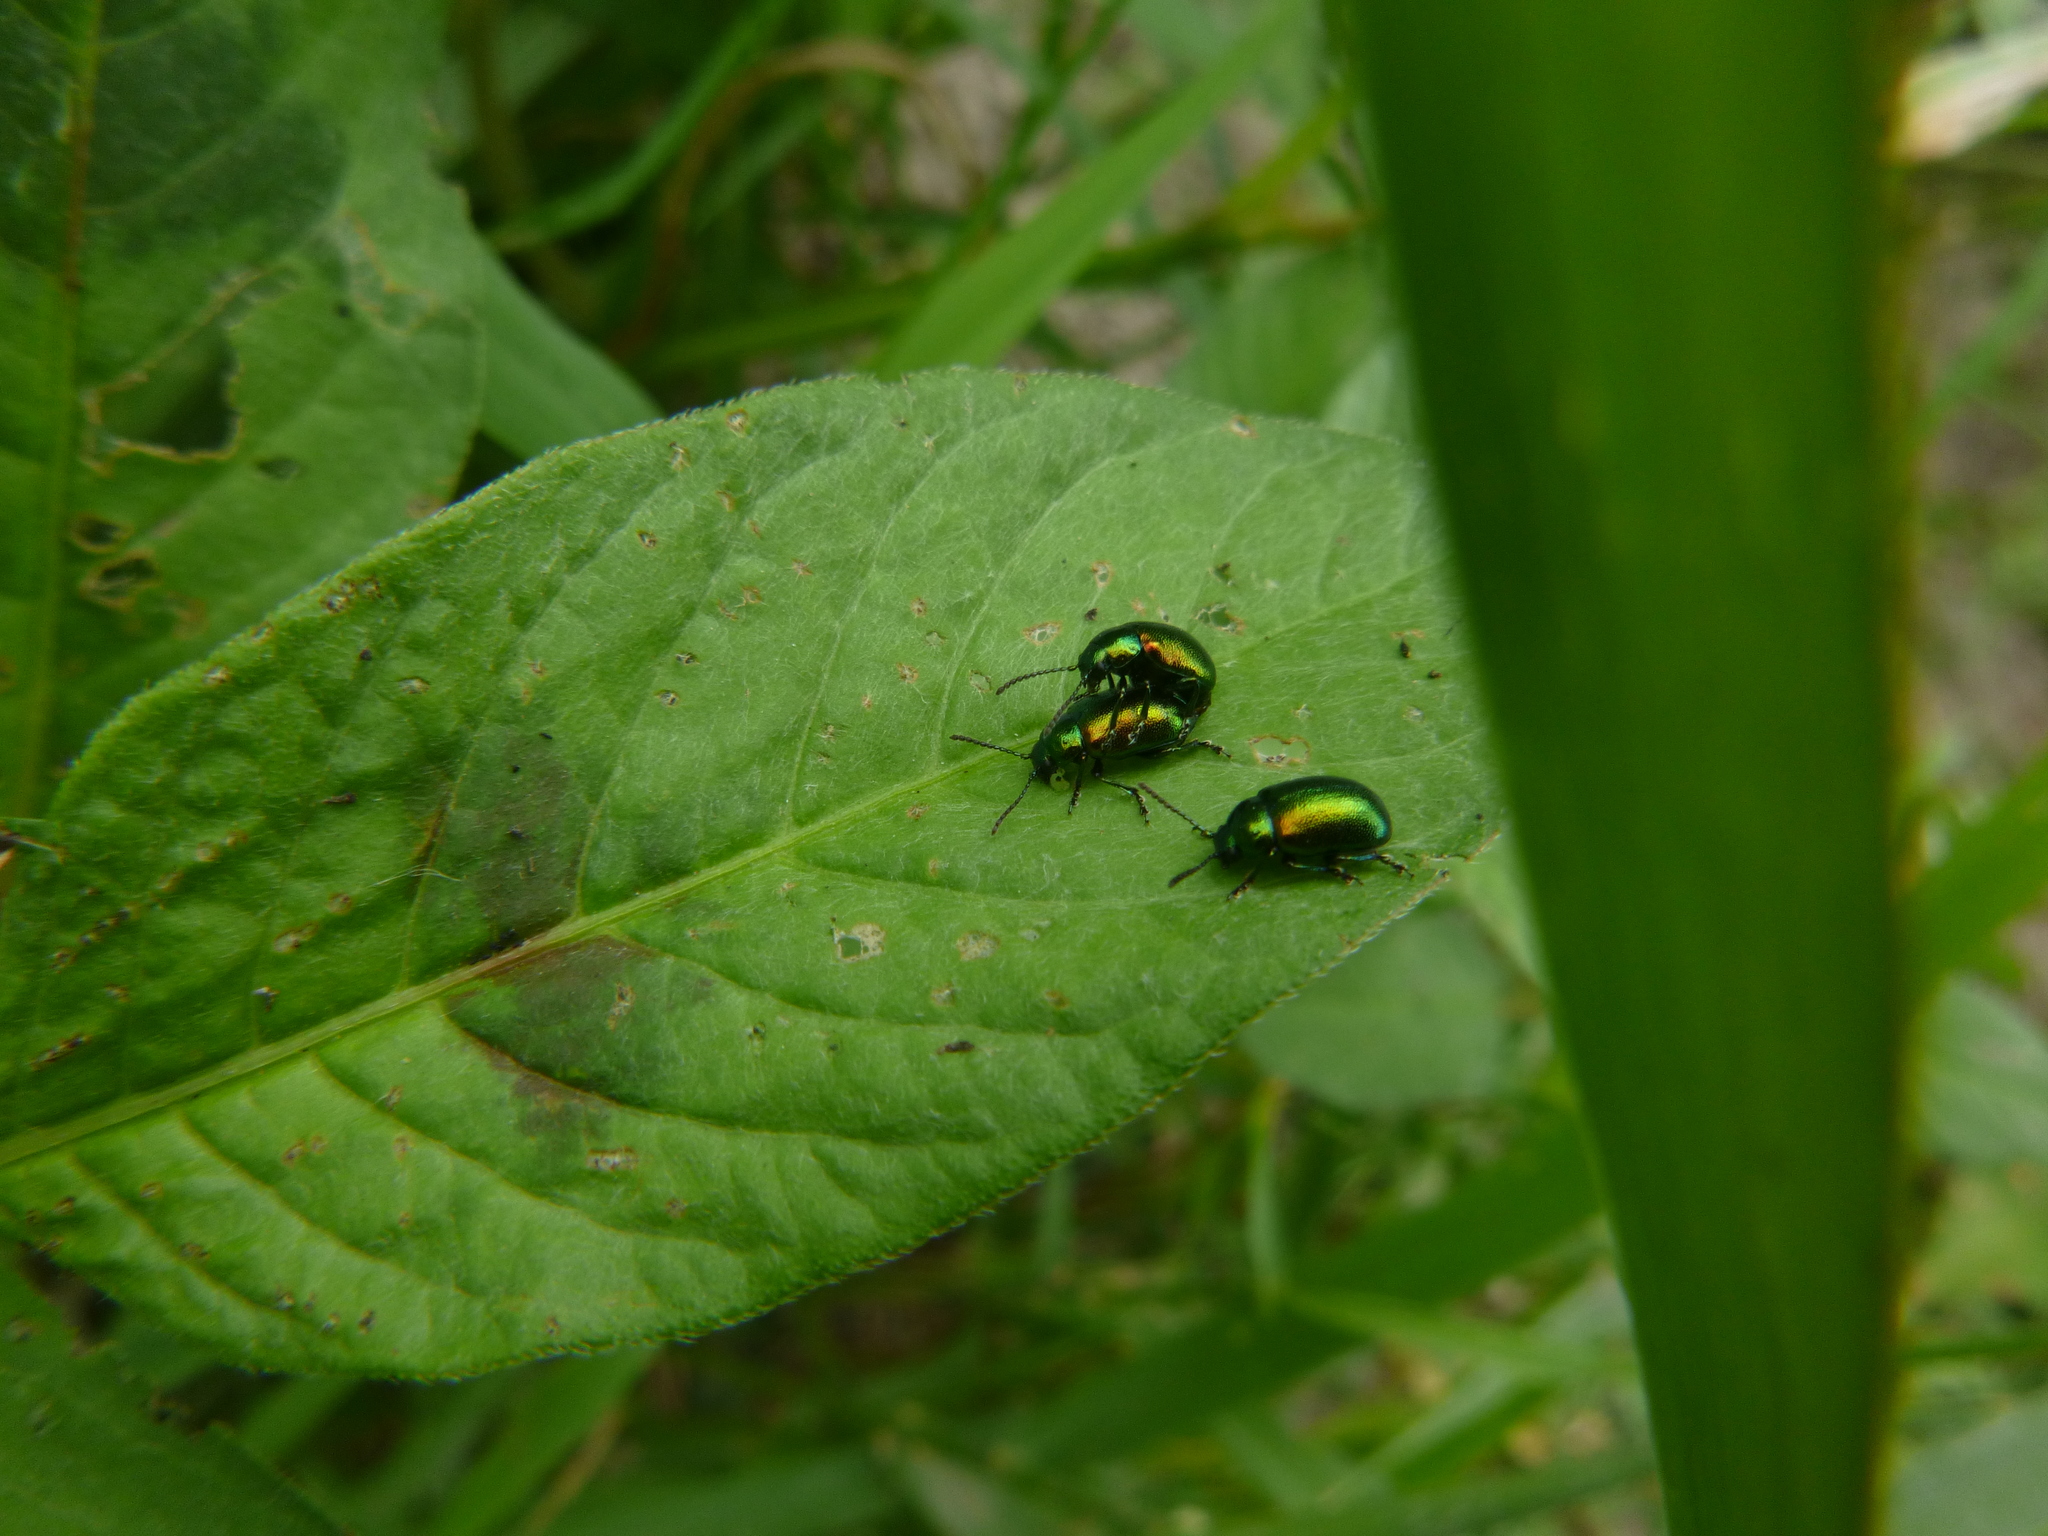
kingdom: Animalia
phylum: Arthropoda
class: Insecta
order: Coleoptera
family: Chrysomelidae
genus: Gastrophysa
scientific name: Gastrophysa viridula
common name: Green dock beetle
